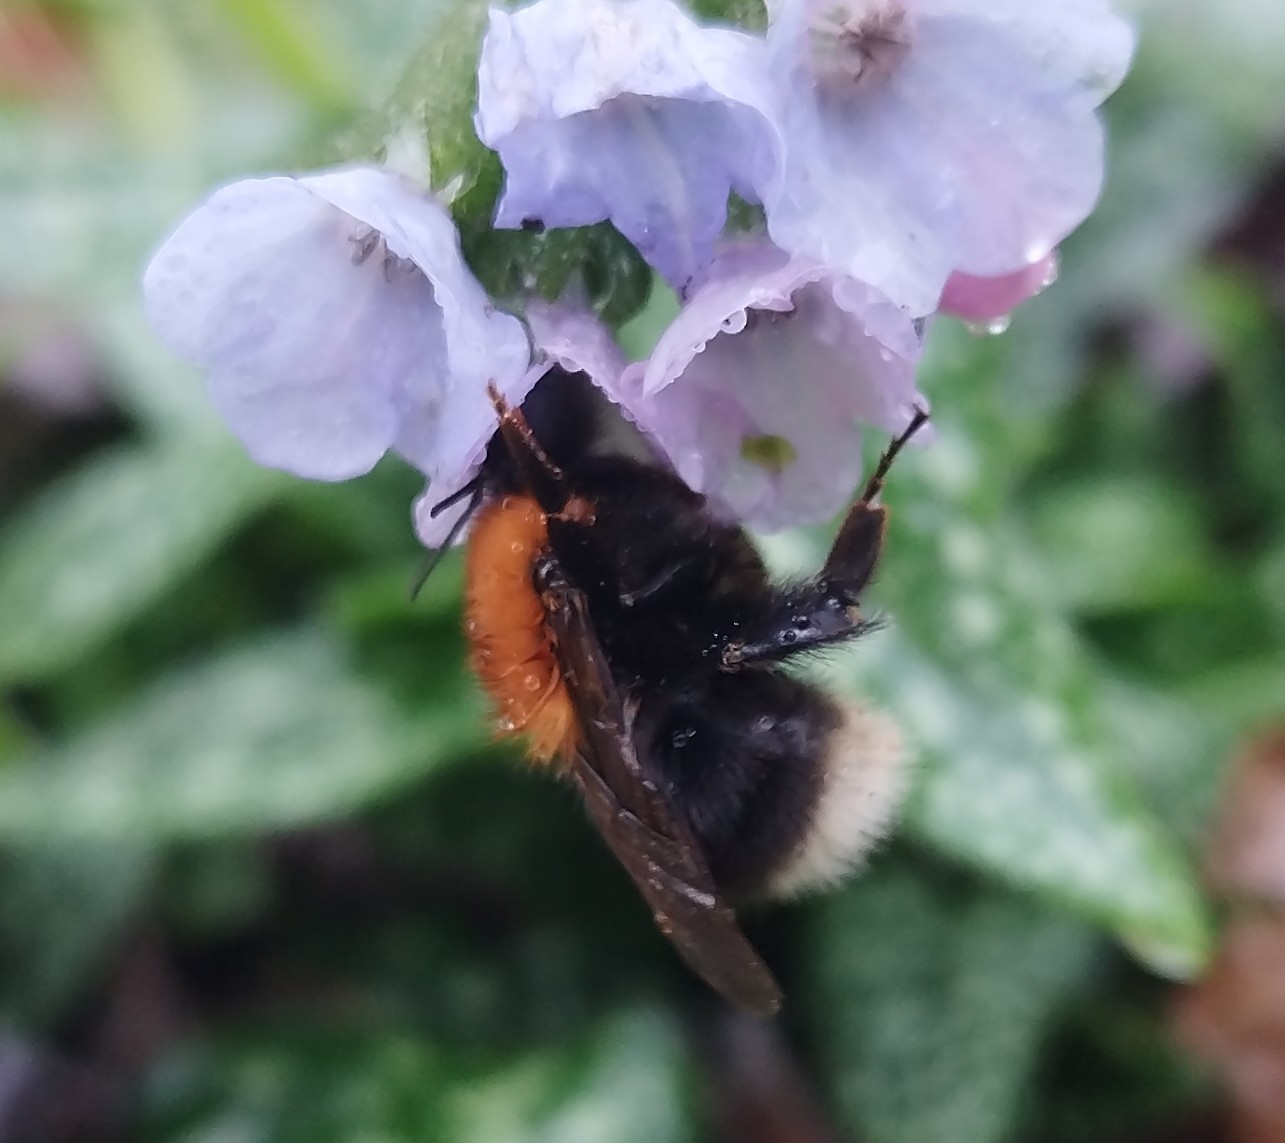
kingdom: Animalia
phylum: Arthropoda
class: Insecta
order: Hymenoptera
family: Apidae
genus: Bombus
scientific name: Bombus hypnorum
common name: New garden bumblebee
